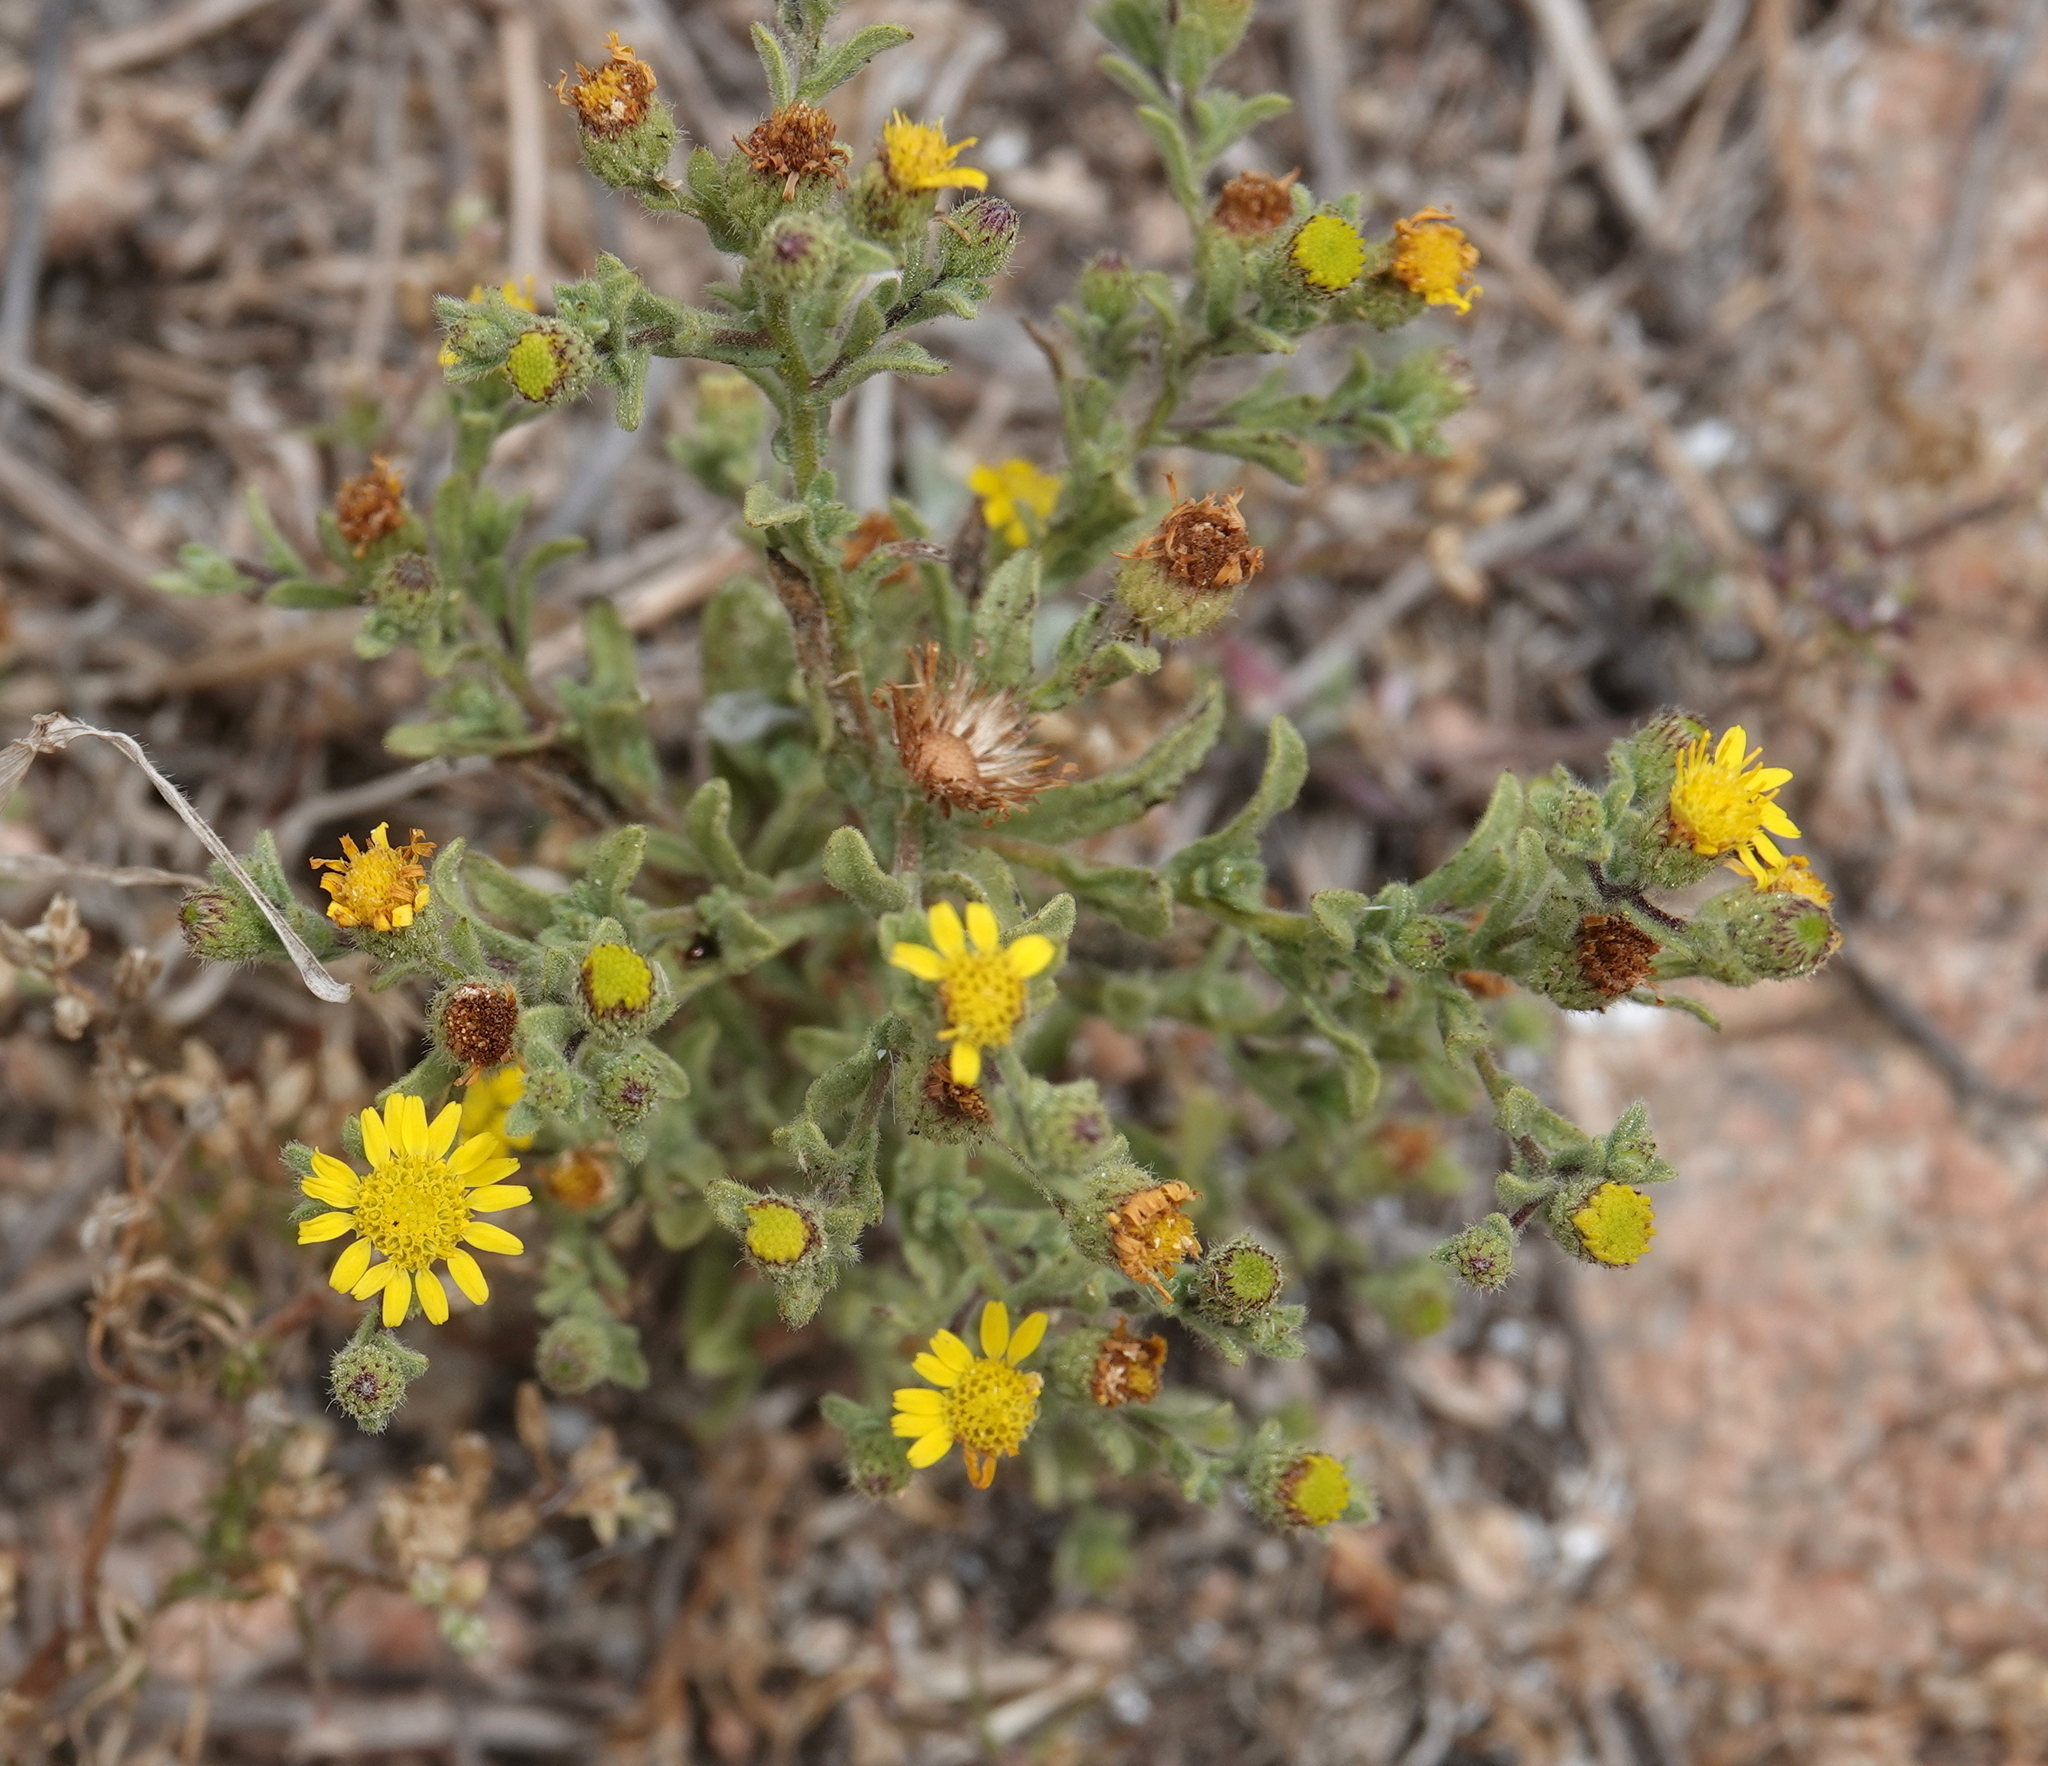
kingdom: Plantae
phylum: Tracheophyta
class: Magnoliopsida
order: Asterales
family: Asteraceae
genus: Pulicaria
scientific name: Pulicaria arabica
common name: Ladies' false fleabane
